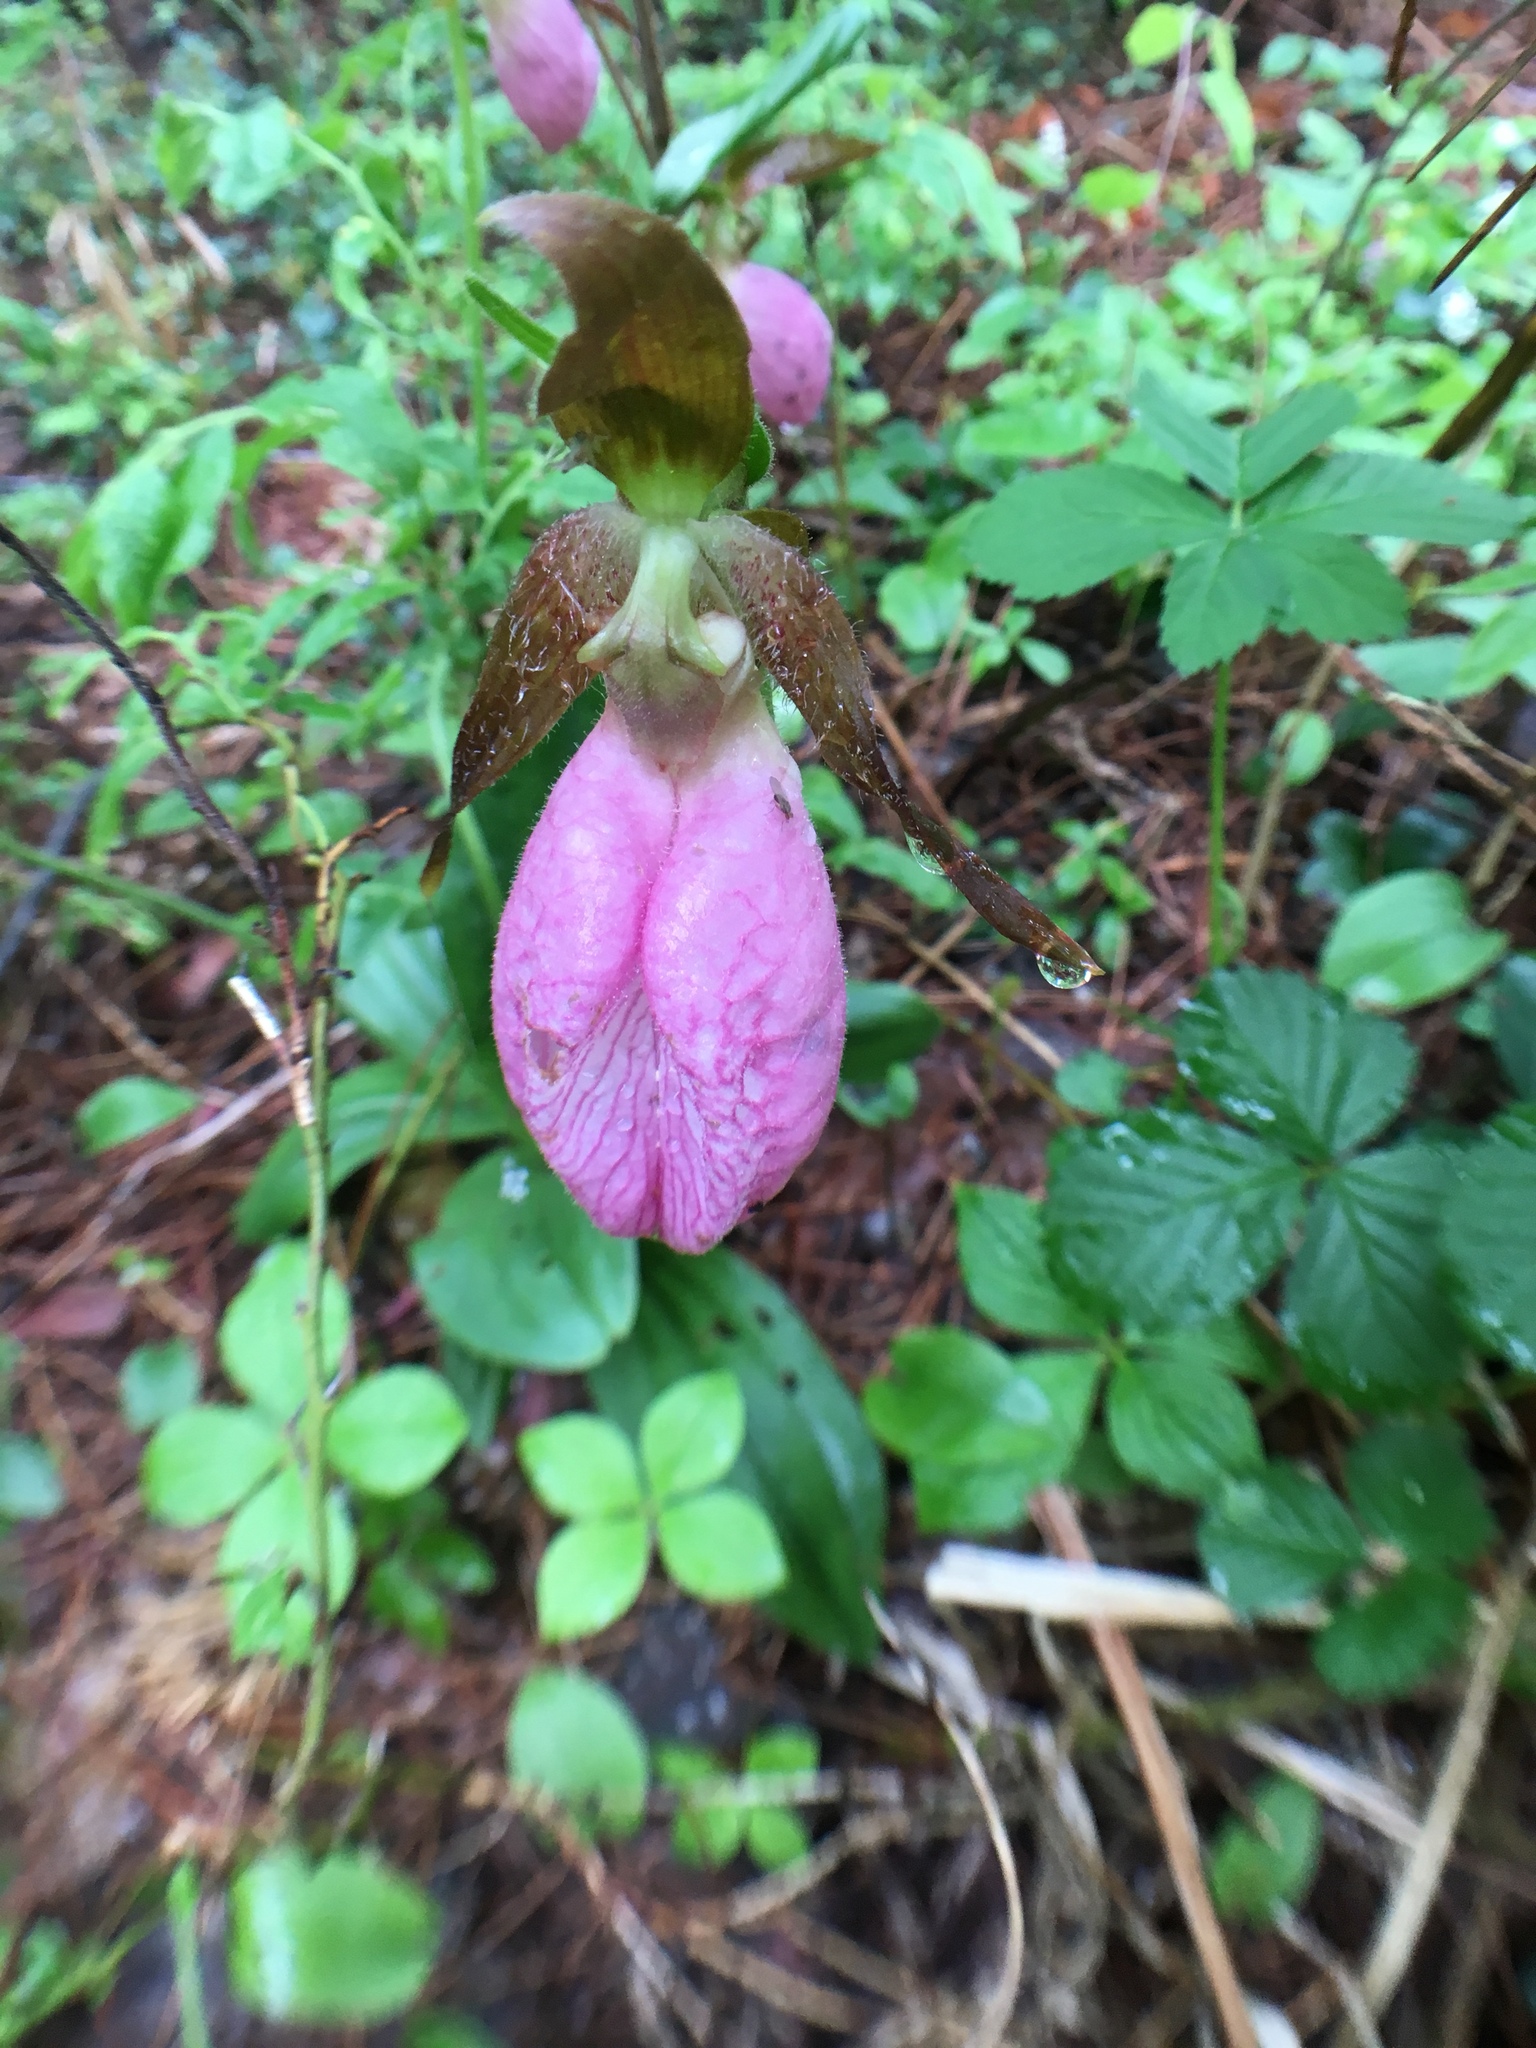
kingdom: Plantae
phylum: Tracheophyta
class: Liliopsida
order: Asparagales
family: Orchidaceae
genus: Cypripedium
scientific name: Cypripedium acaule
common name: Pink lady's-slipper
